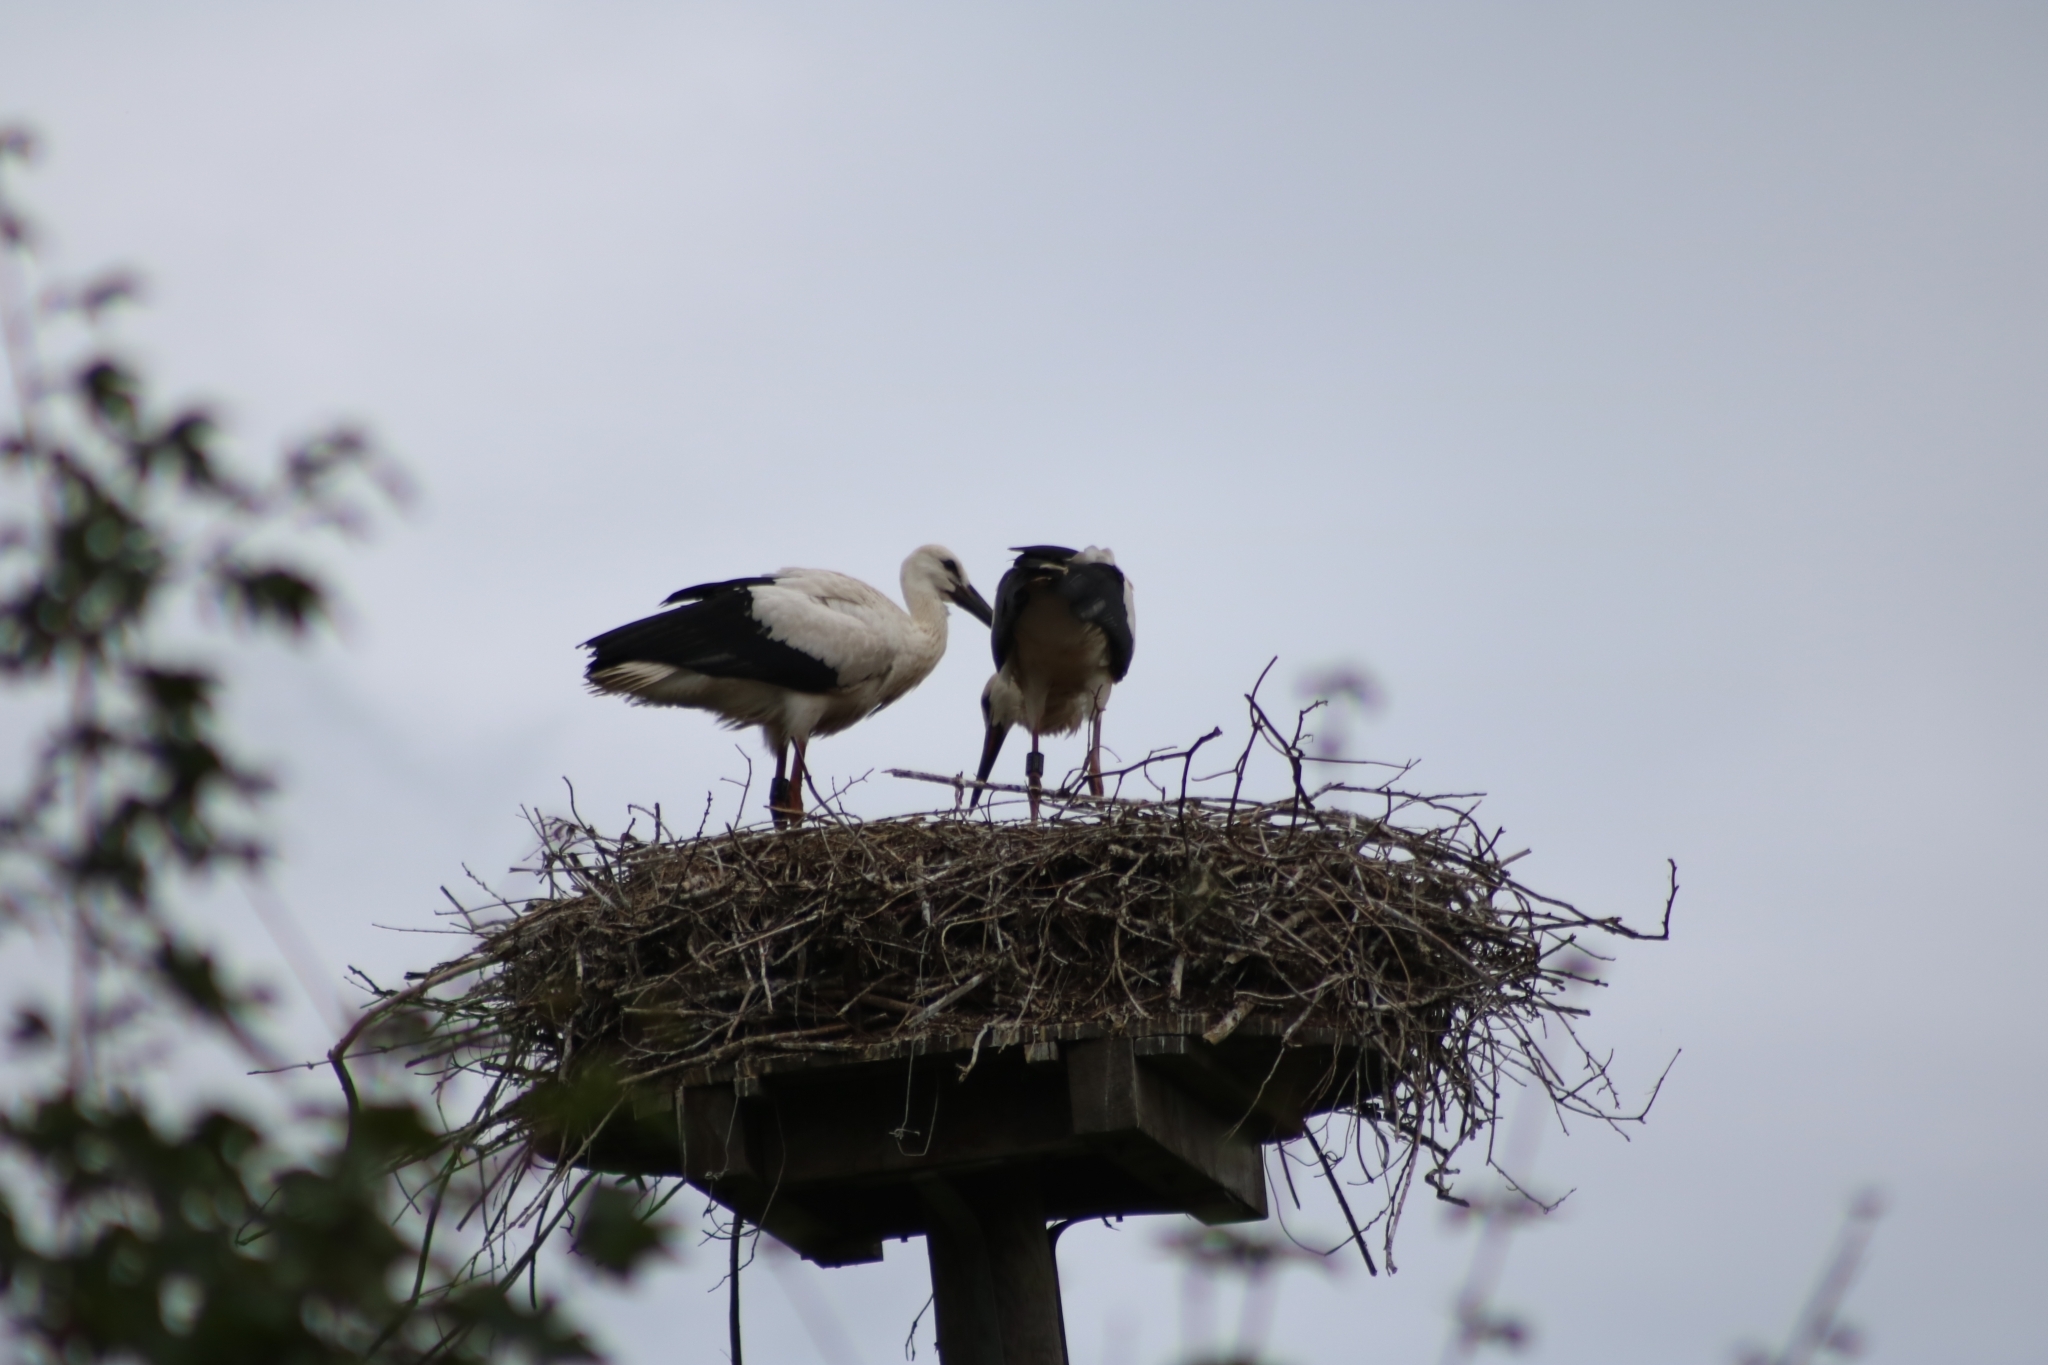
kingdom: Animalia
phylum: Chordata
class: Aves
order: Ciconiiformes
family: Ciconiidae
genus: Ciconia
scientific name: Ciconia ciconia
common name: White stork
